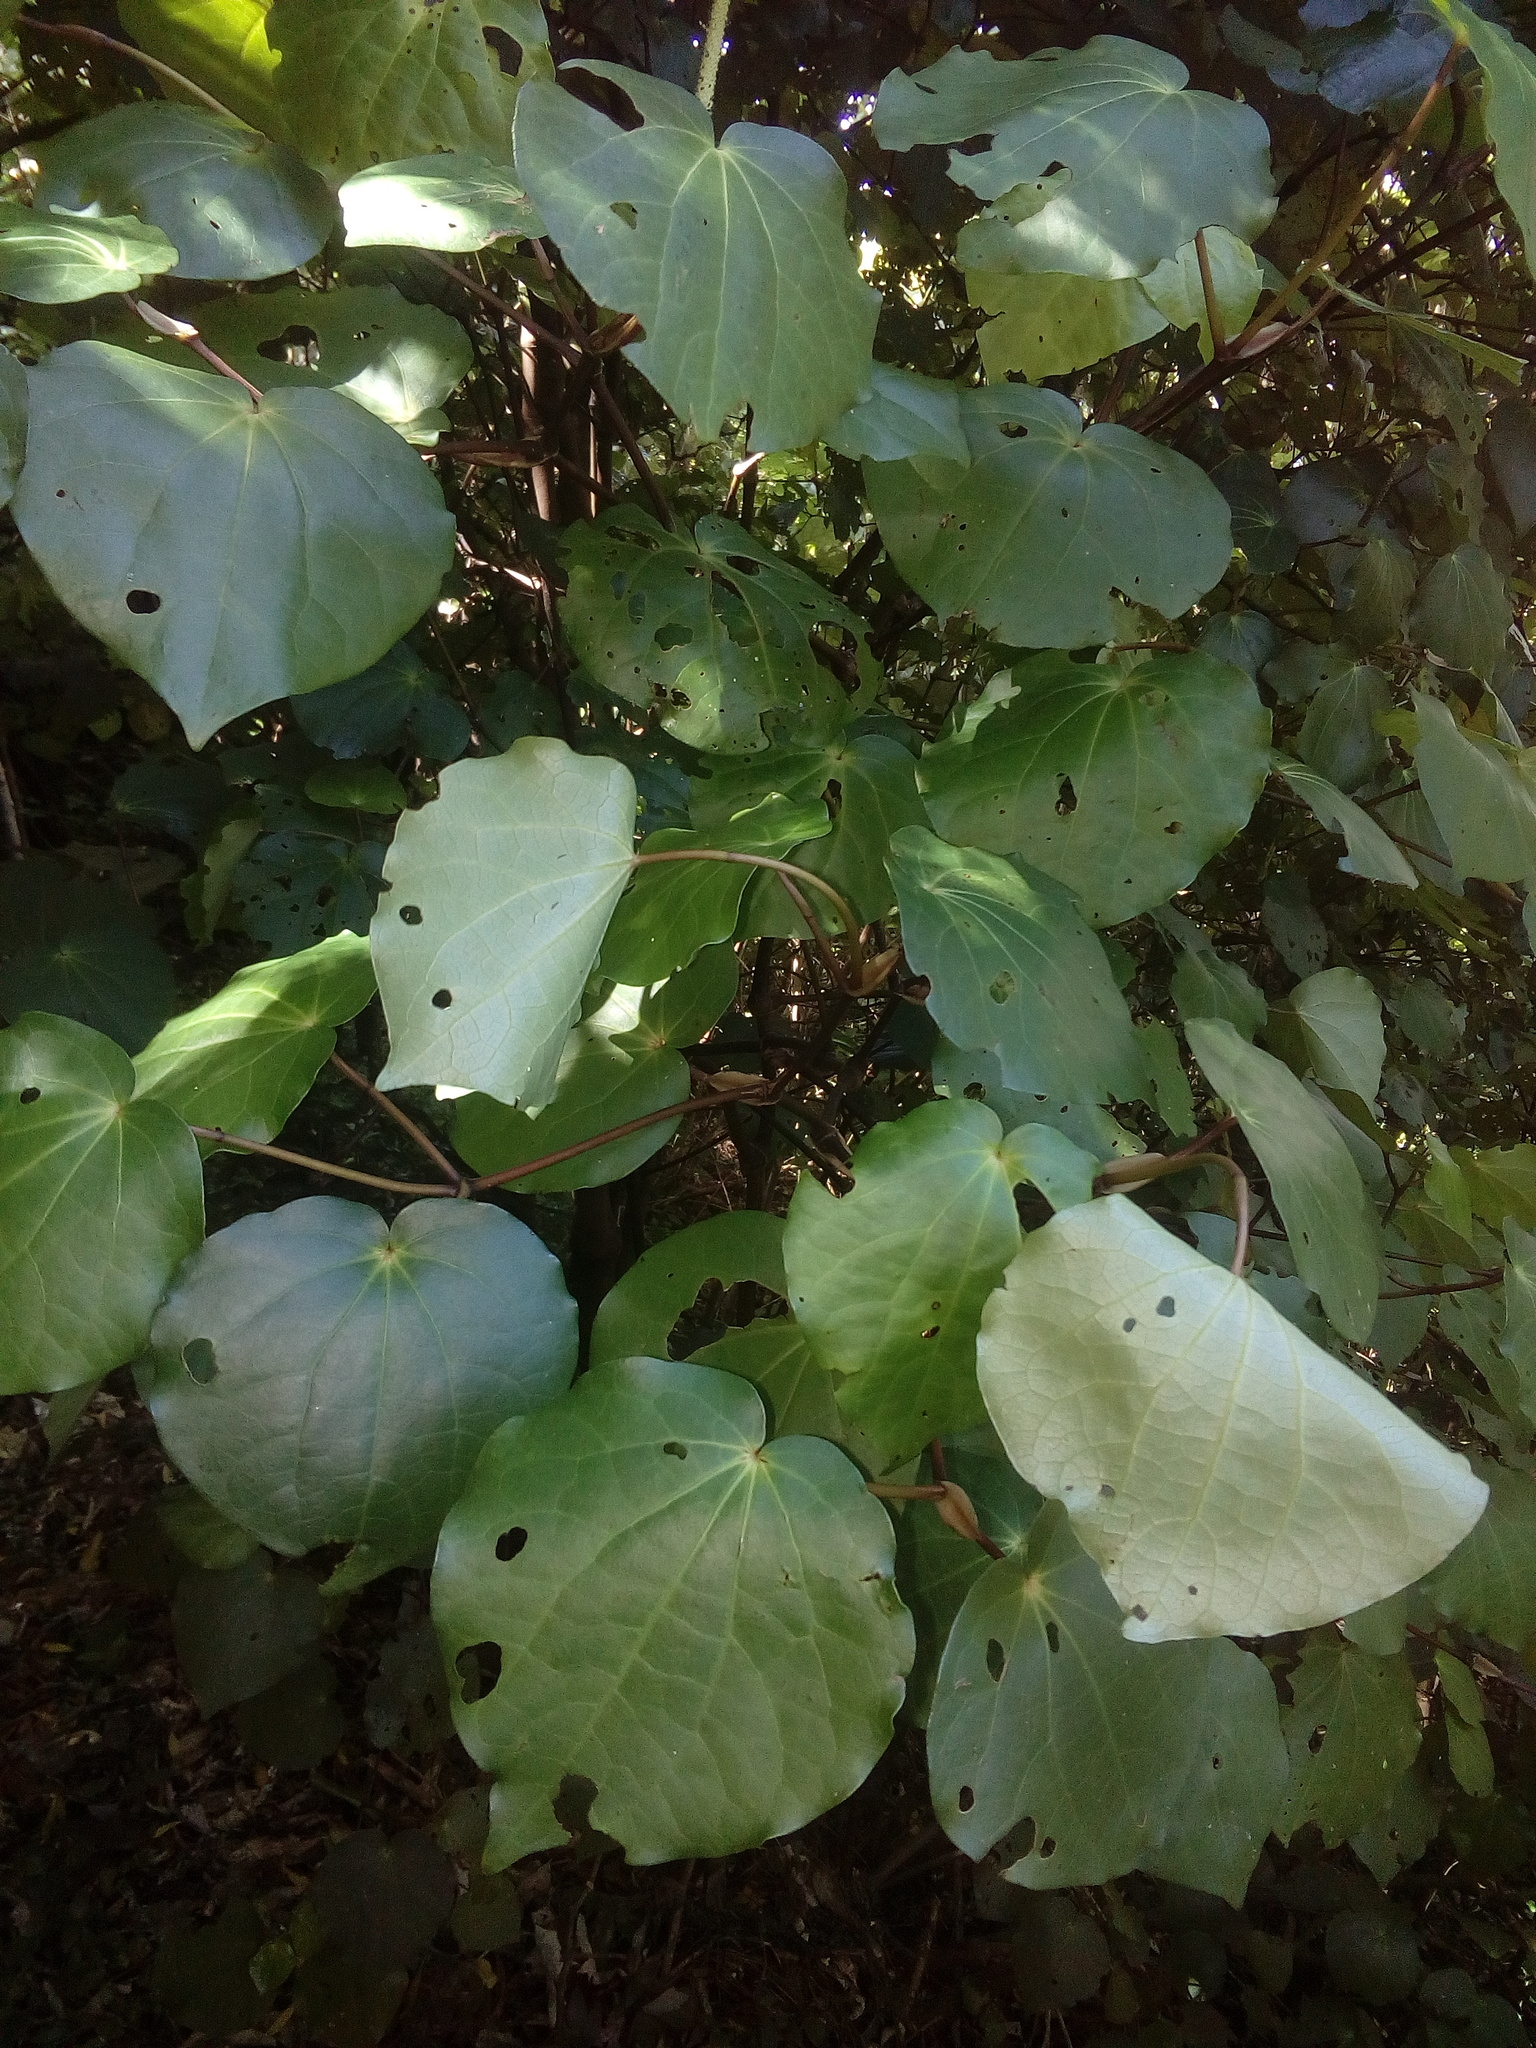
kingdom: Plantae
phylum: Tracheophyta
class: Magnoliopsida
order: Piperales
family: Piperaceae
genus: Macropiper
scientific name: Macropiper excelsum
